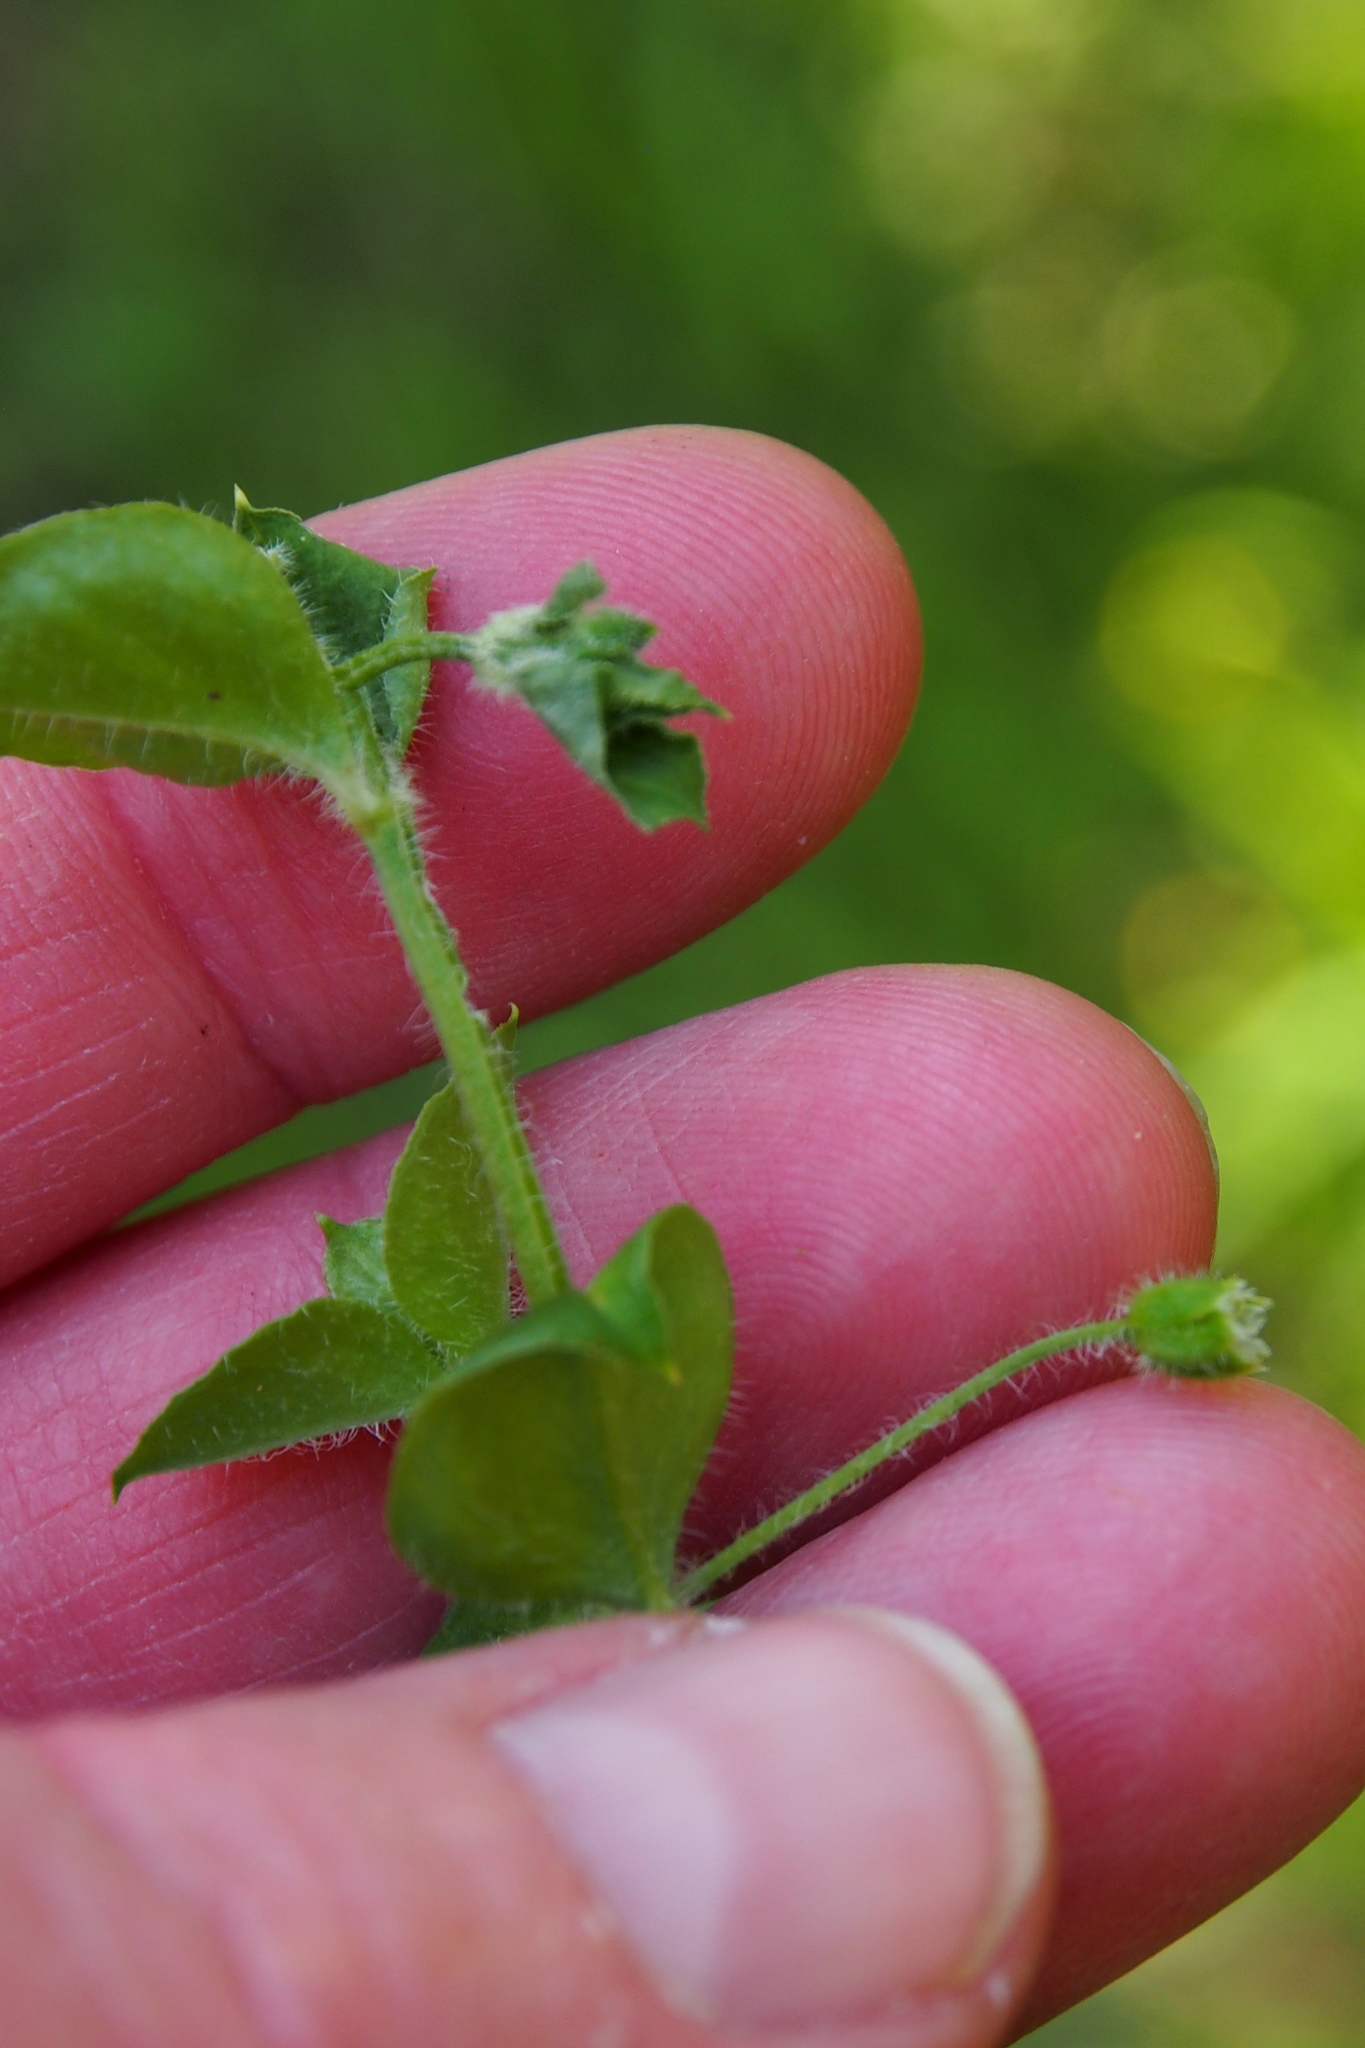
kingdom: Plantae
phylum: Tracheophyta
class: Magnoliopsida
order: Caryophyllales
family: Caryophyllaceae
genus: Stellaria
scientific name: Stellaria ovata
